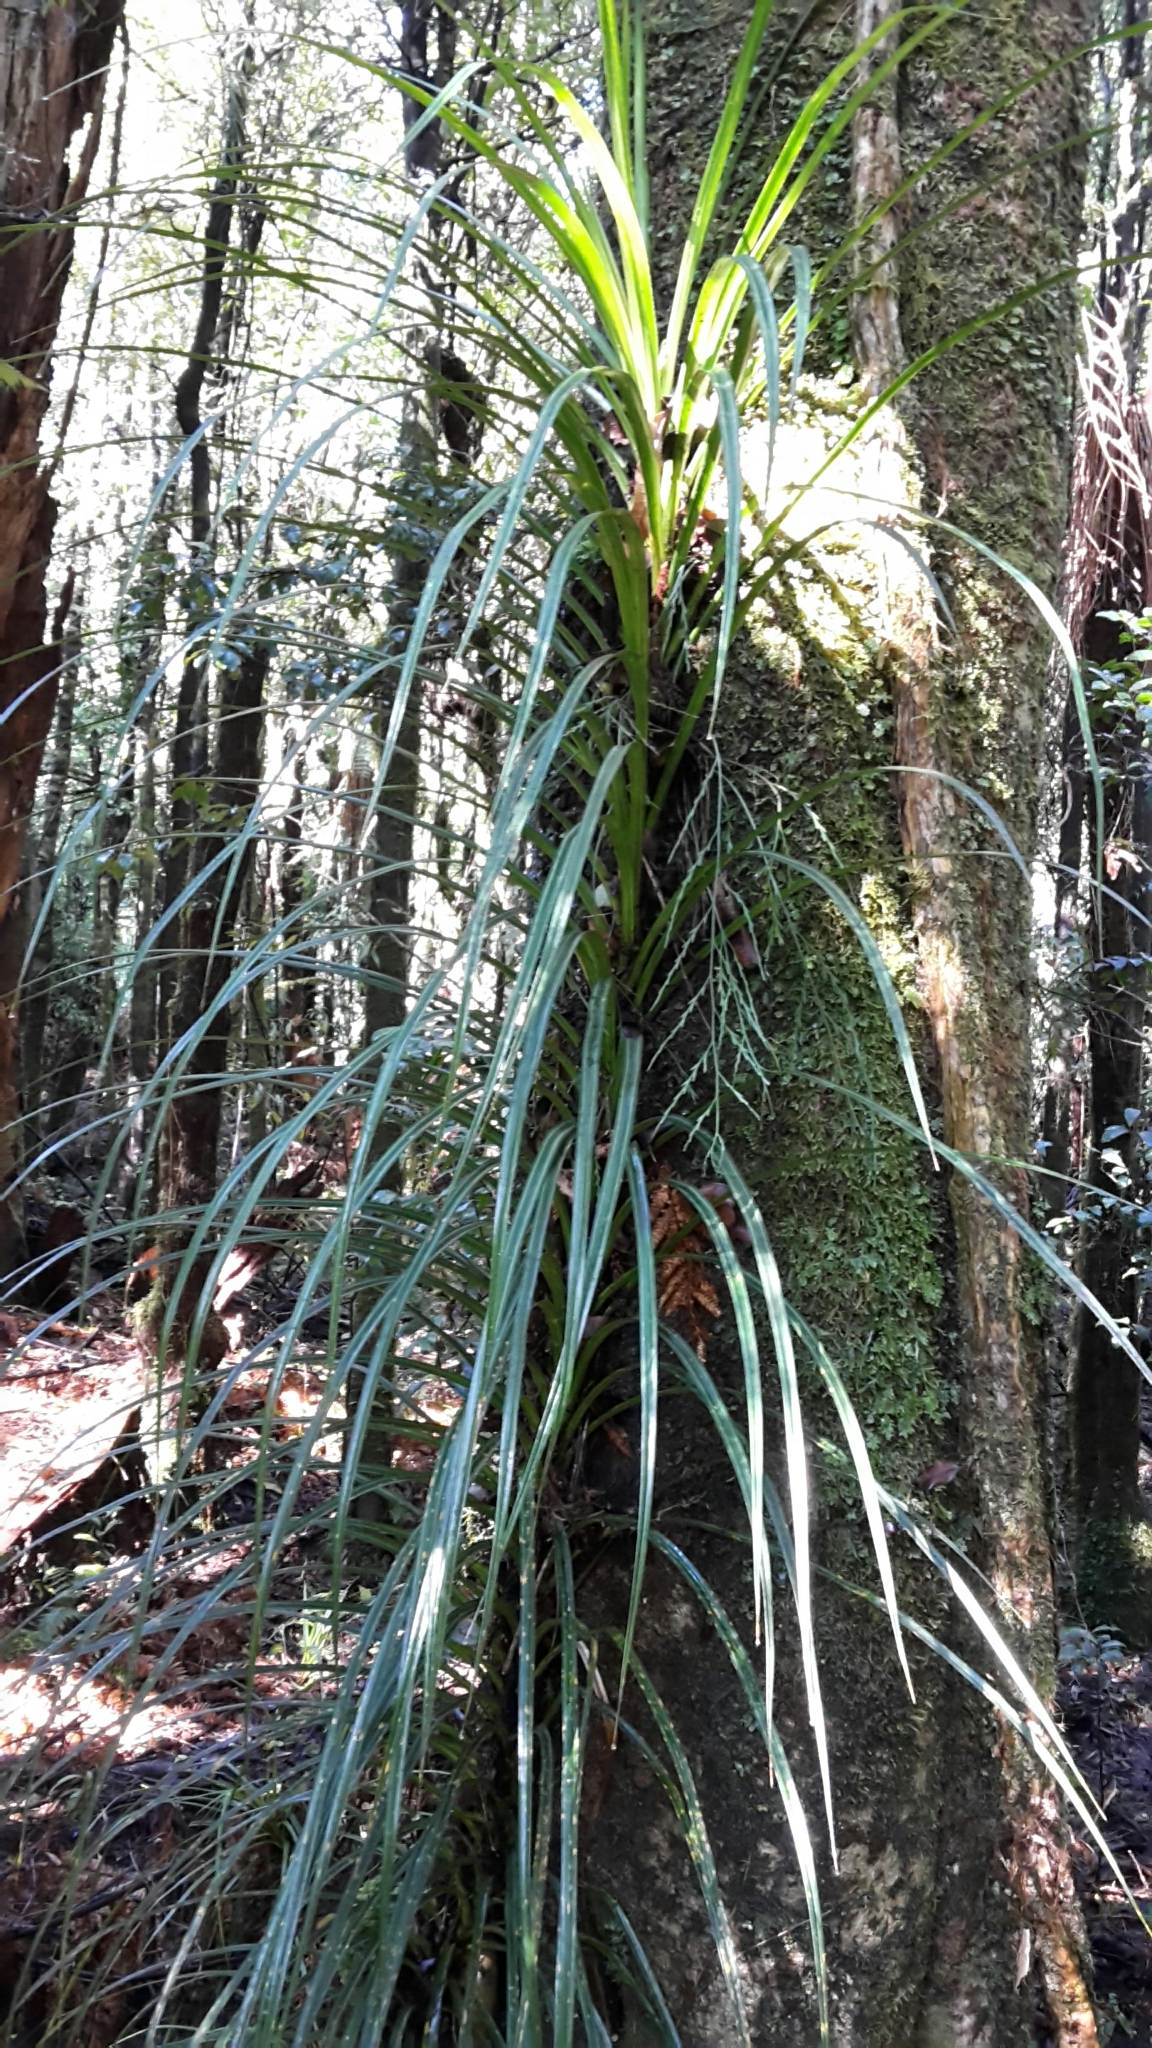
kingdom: Plantae
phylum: Tracheophyta
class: Liliopsida
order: Pandanales
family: Pandanaceae
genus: Freycinetia
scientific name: Freycinetia banksii
